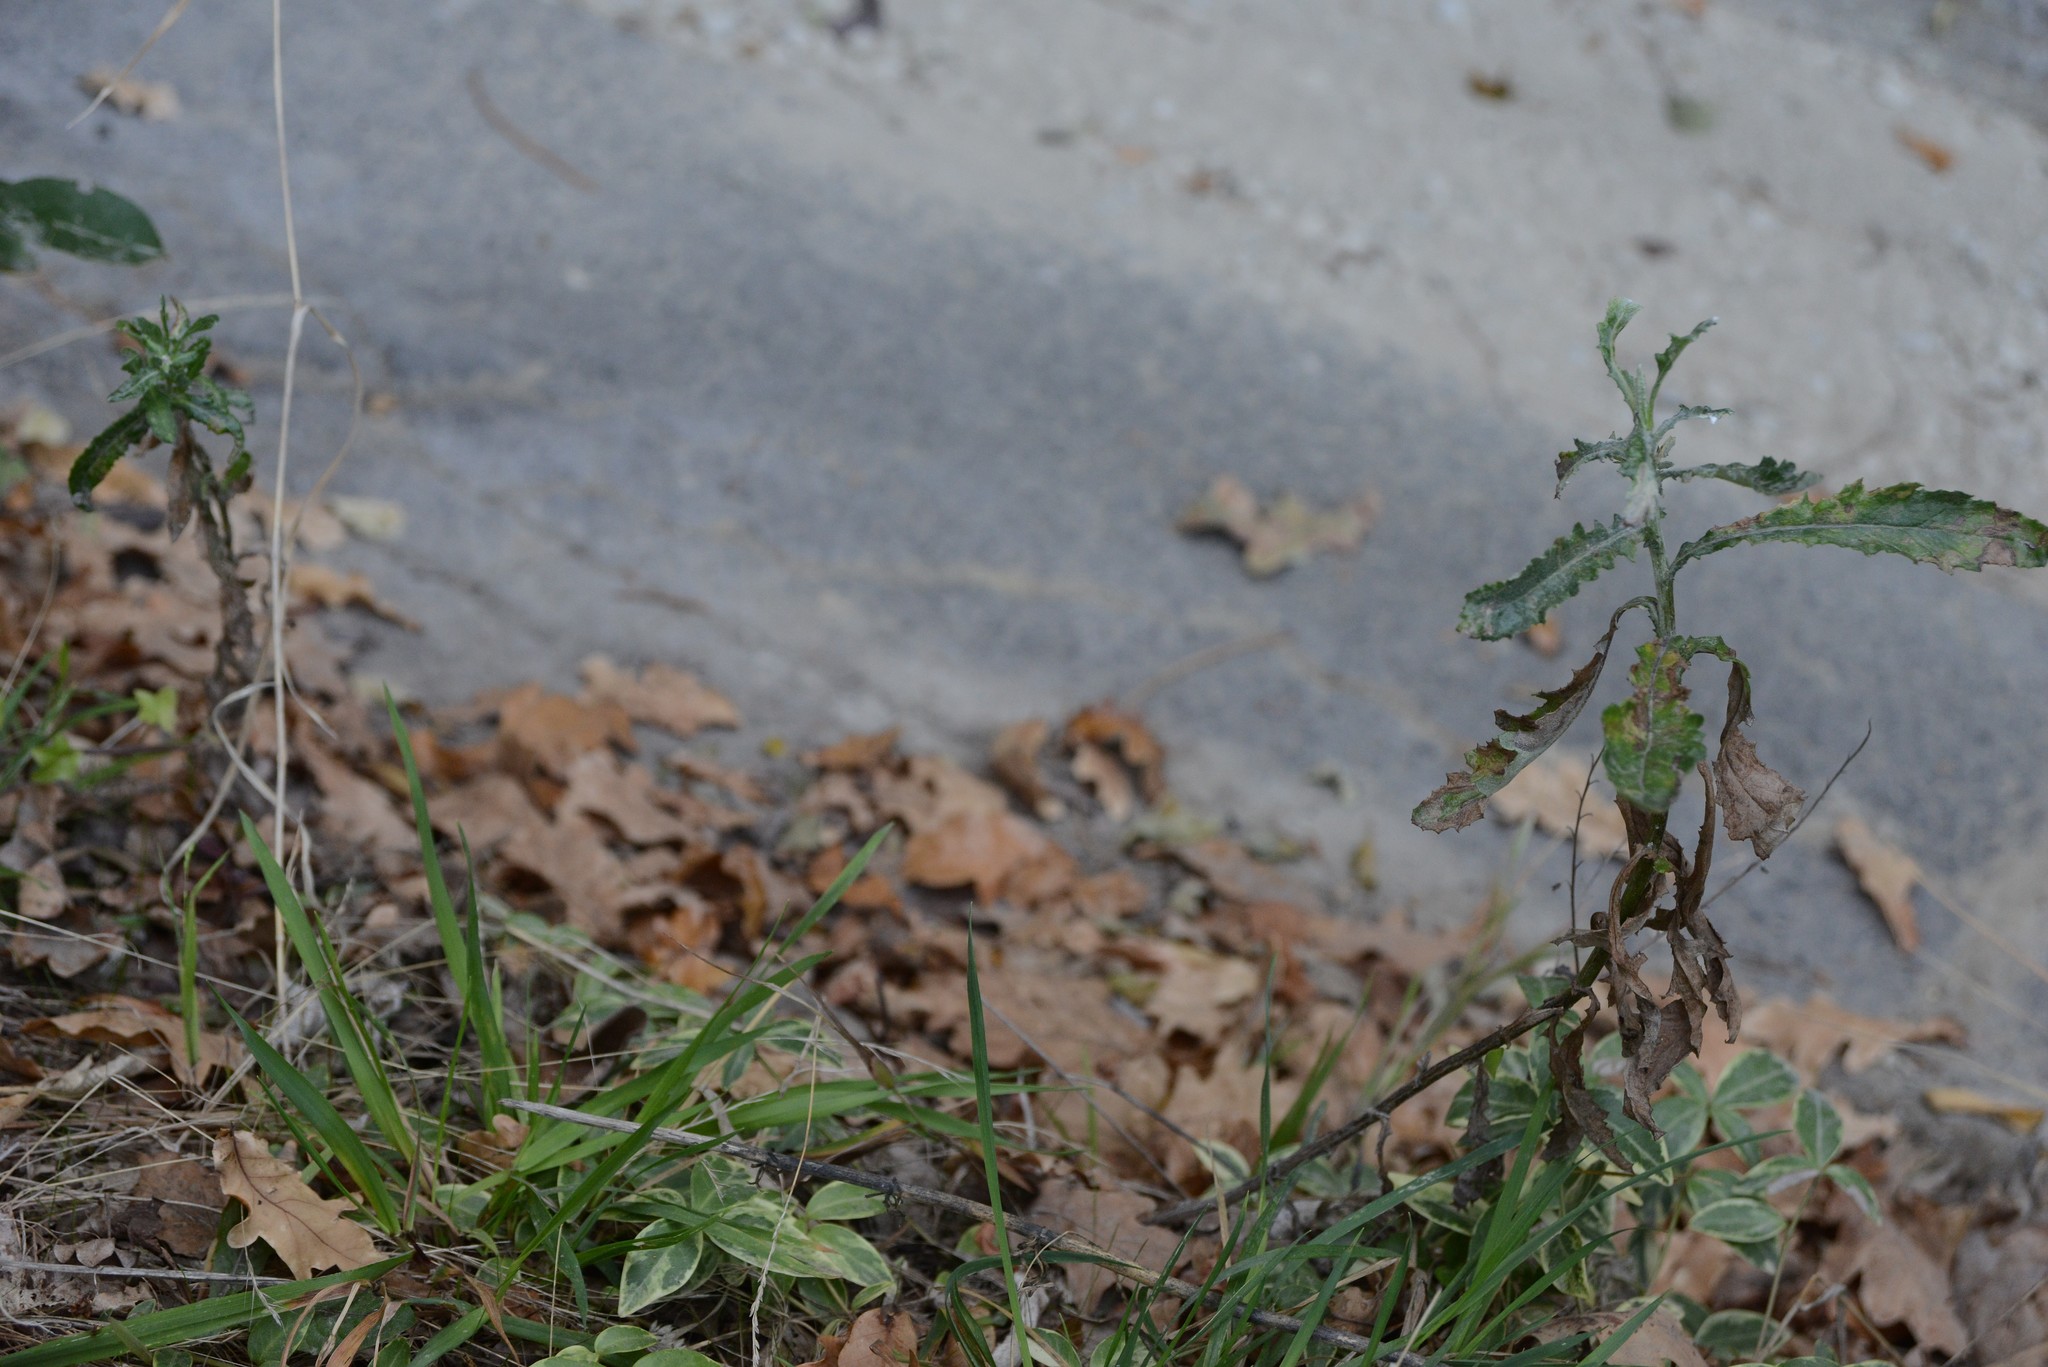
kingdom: Plantae
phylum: Tracheophyta
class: Magnoliopsida
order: Asterales
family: Asteraceae
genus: Senecio
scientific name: Senecio glomeratus
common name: Cutleaf burnweed
